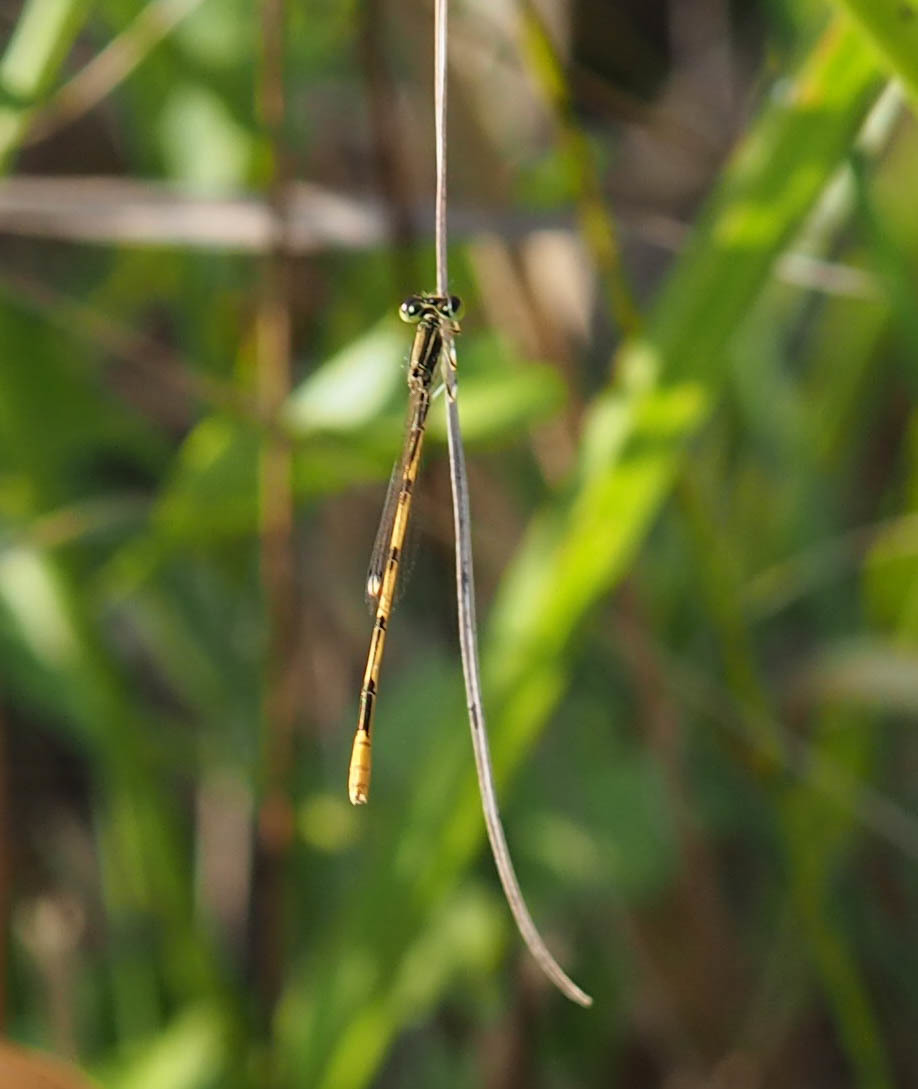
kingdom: Animalia
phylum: Arthropoda
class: Insecta
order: Odonata
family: Coenagrionidae
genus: Ischnura
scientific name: Ischnura hastata
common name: Citrine forktail
